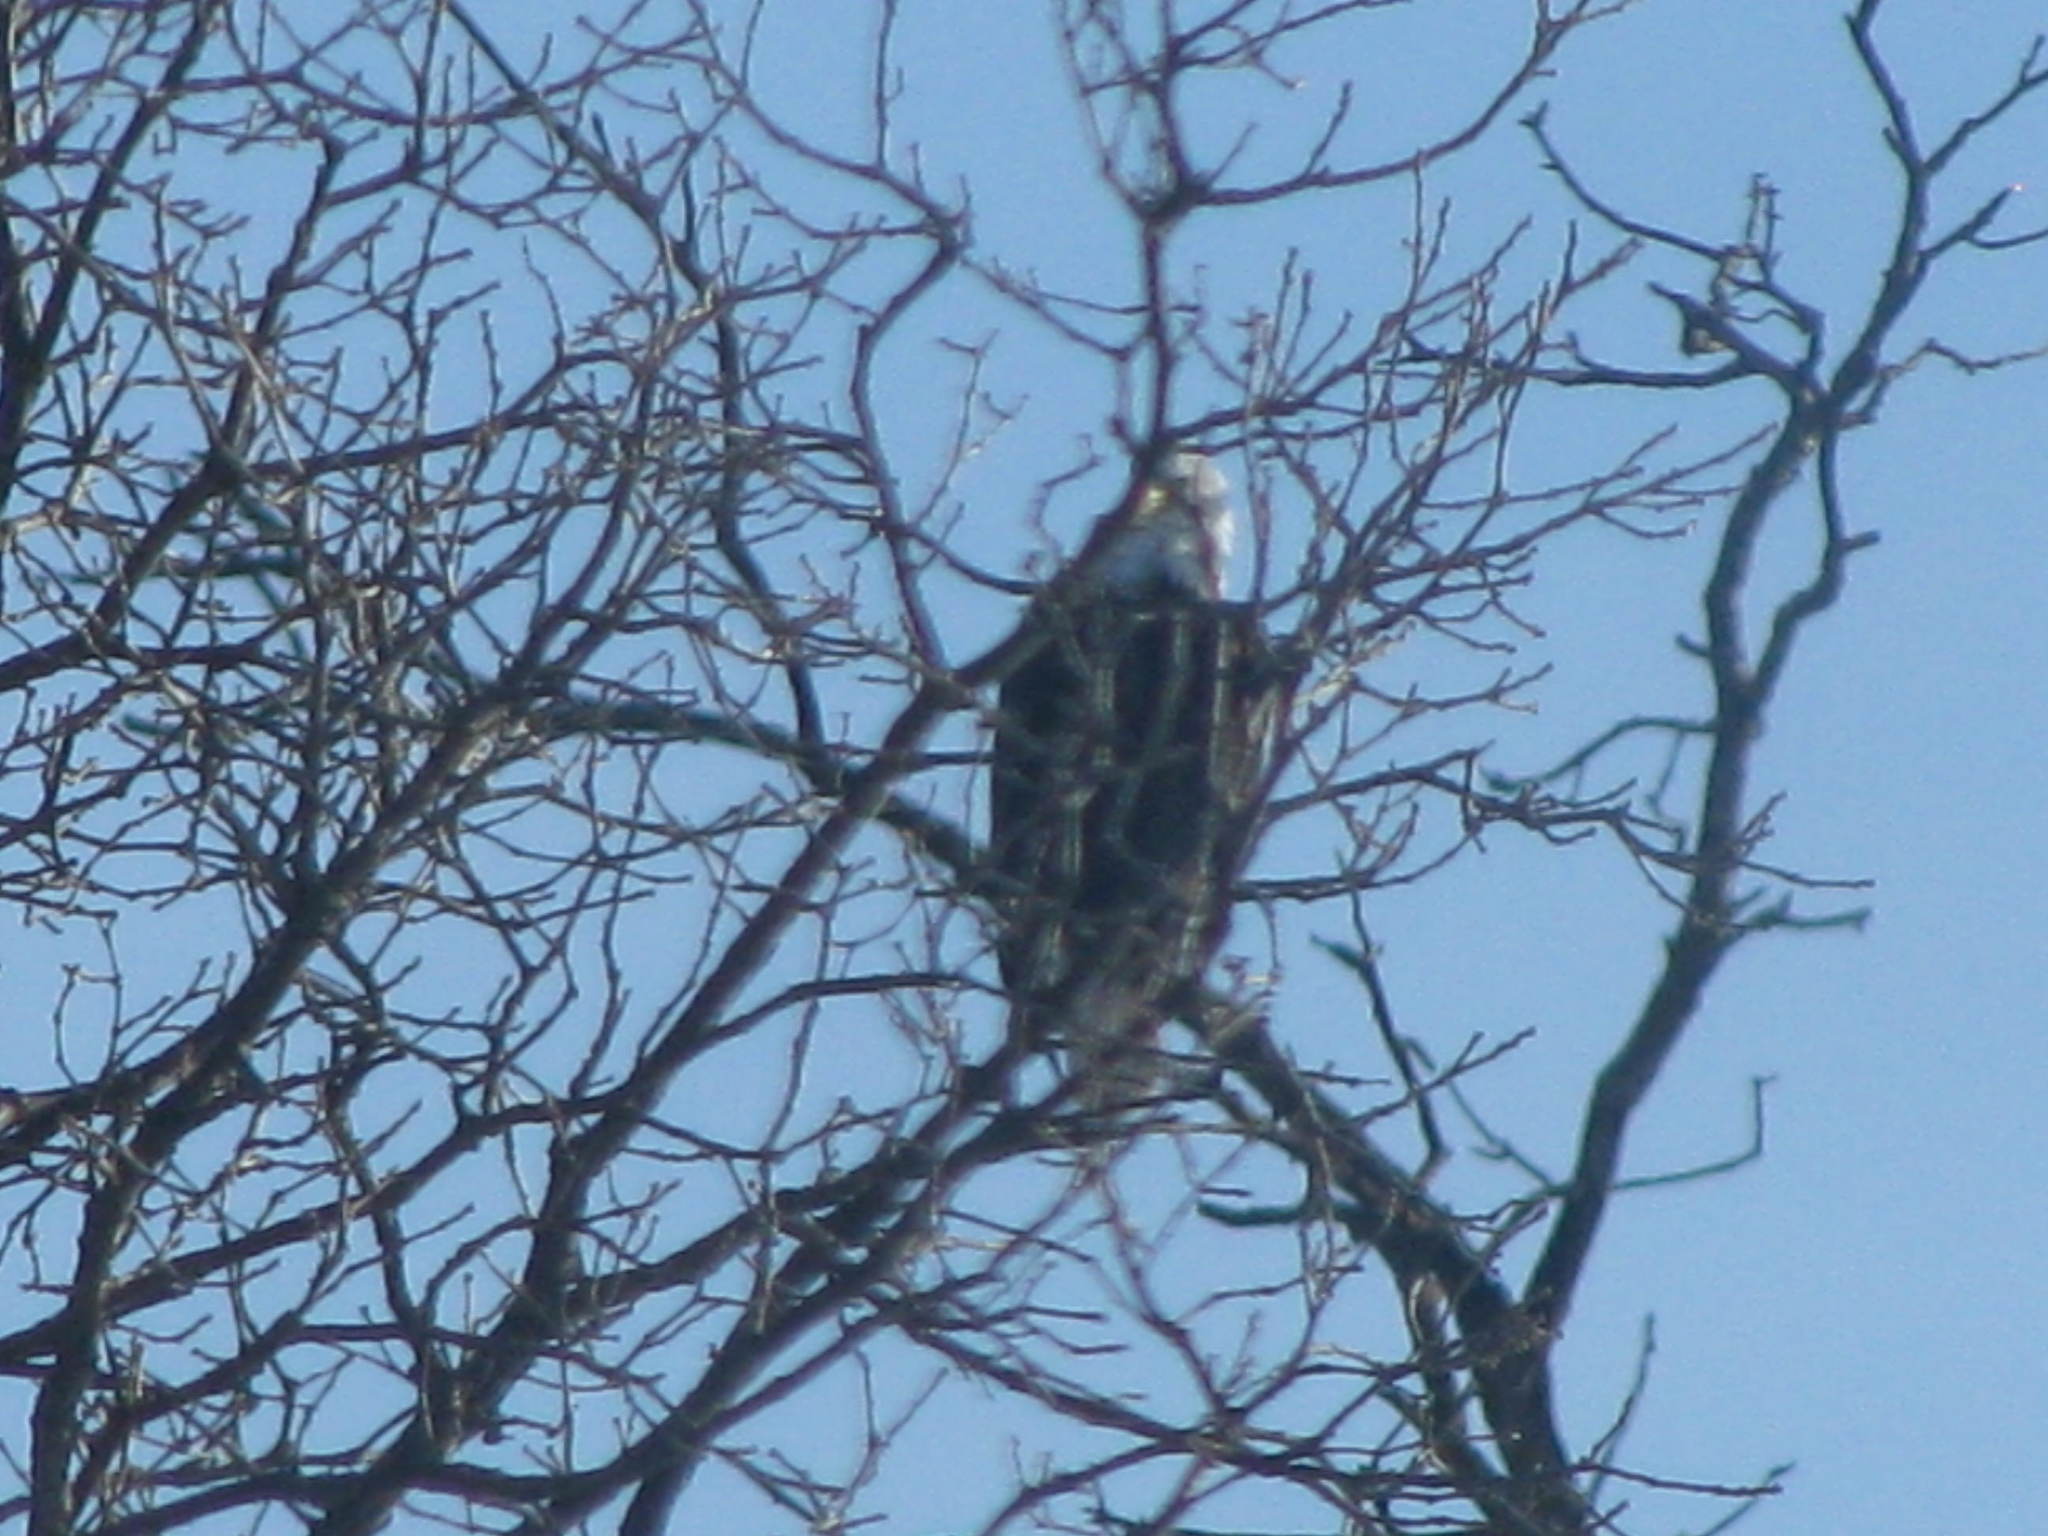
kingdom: Animalia
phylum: Chordata
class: Aves
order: Accipitriformes
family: Accipitridae
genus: Haliaeetus
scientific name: Haliaeetus leucocephalus
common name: Bald eagle
